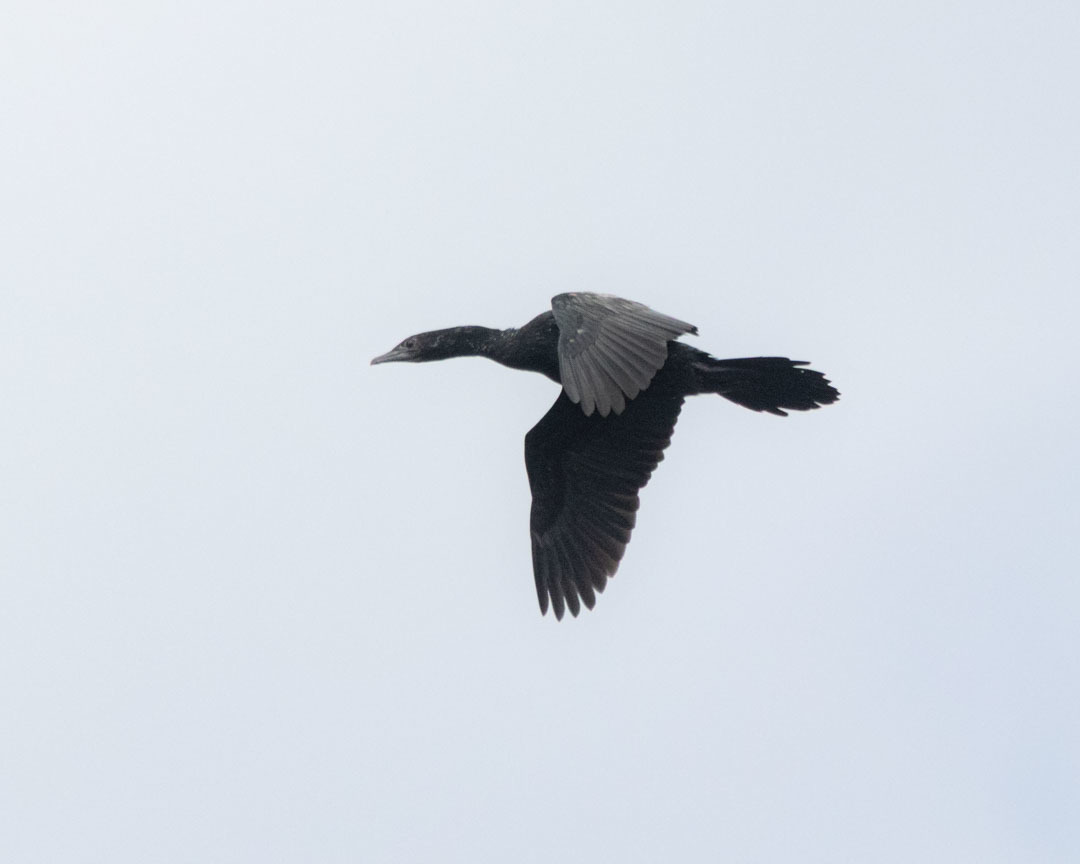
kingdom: Animalia
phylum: Chordata
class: Aves
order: Suliformes
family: Phalacrocoracidae
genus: Microcarbo
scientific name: Microcarbo pygmaeus
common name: Pygmy cormorant
